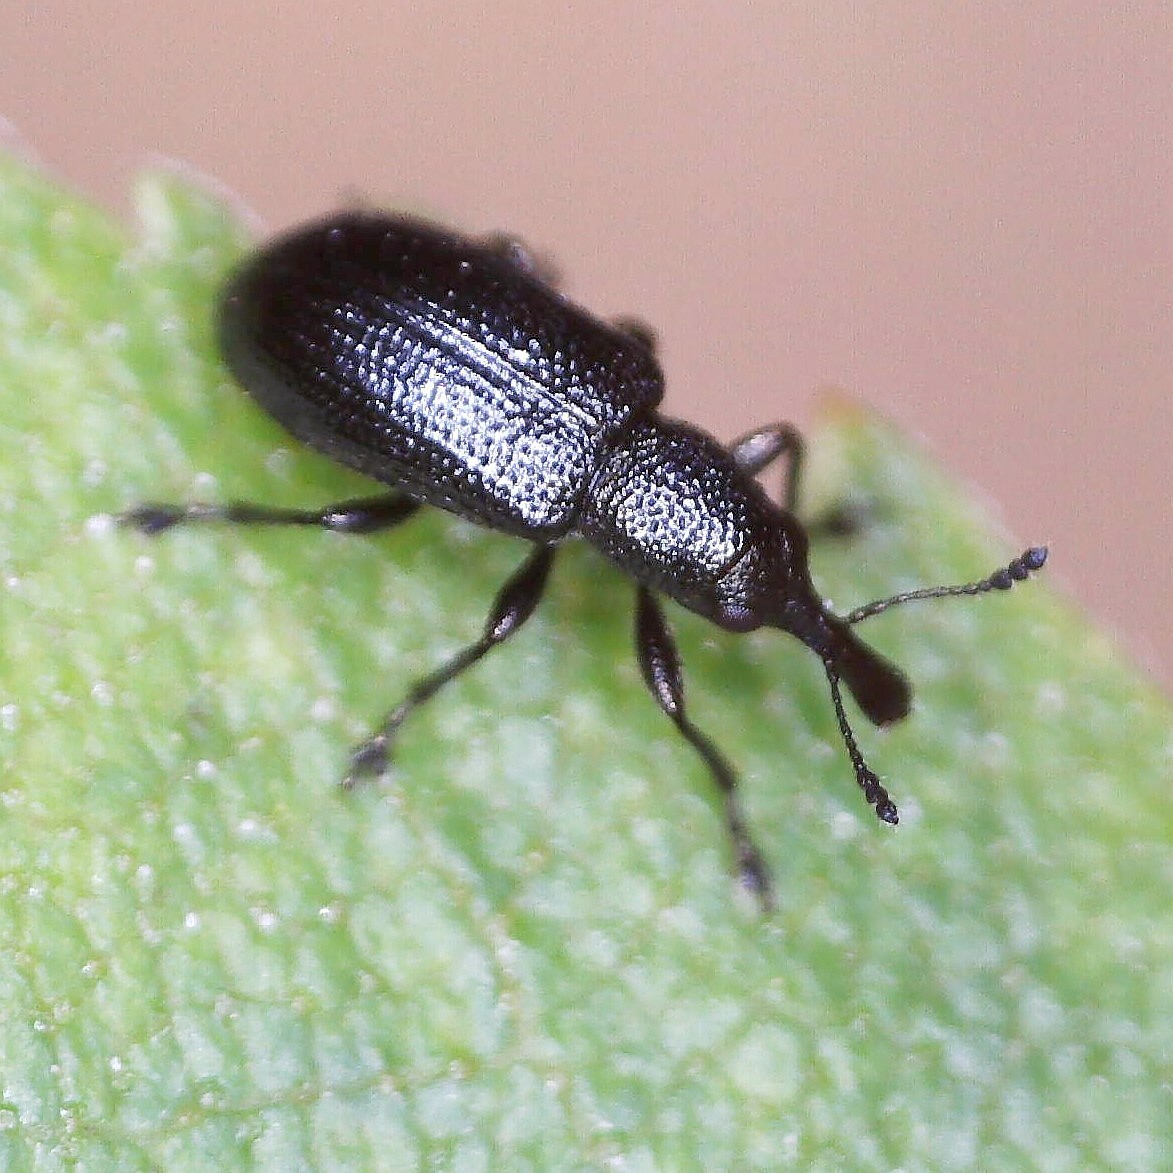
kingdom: Animalia
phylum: Arthropoda
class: Insecta
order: Coleoptera
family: Attelabidae
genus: Temnocerus
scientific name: Temnocerus nanus
